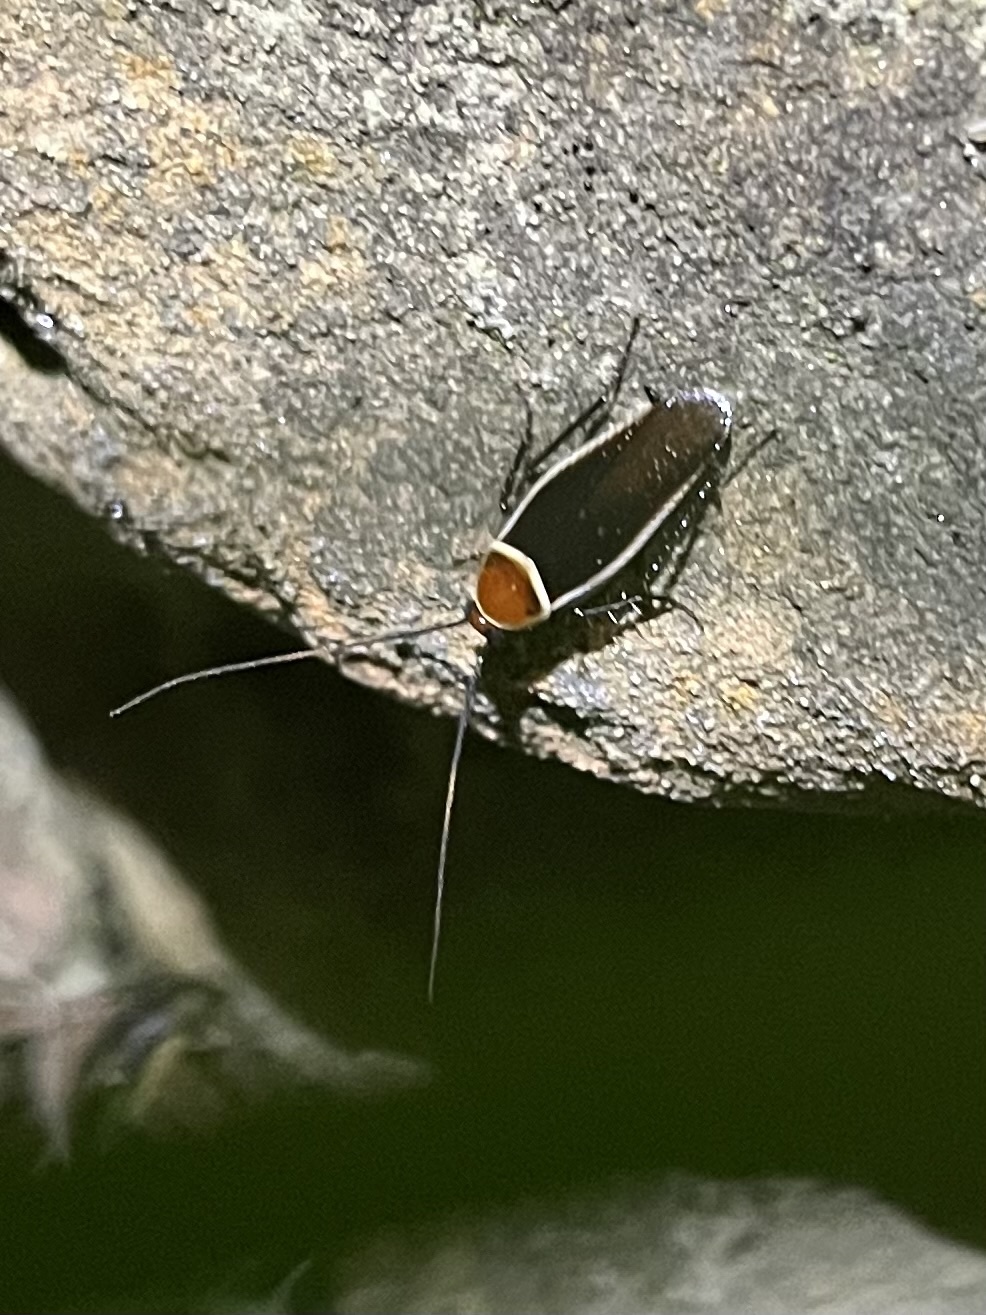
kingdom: Animalia
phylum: Arthropoda
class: Insecta
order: Blattodea
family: Ectobiidae
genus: Pseudomops
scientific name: Pseudomops septentrionalis
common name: Pale-bordered field cockroach
